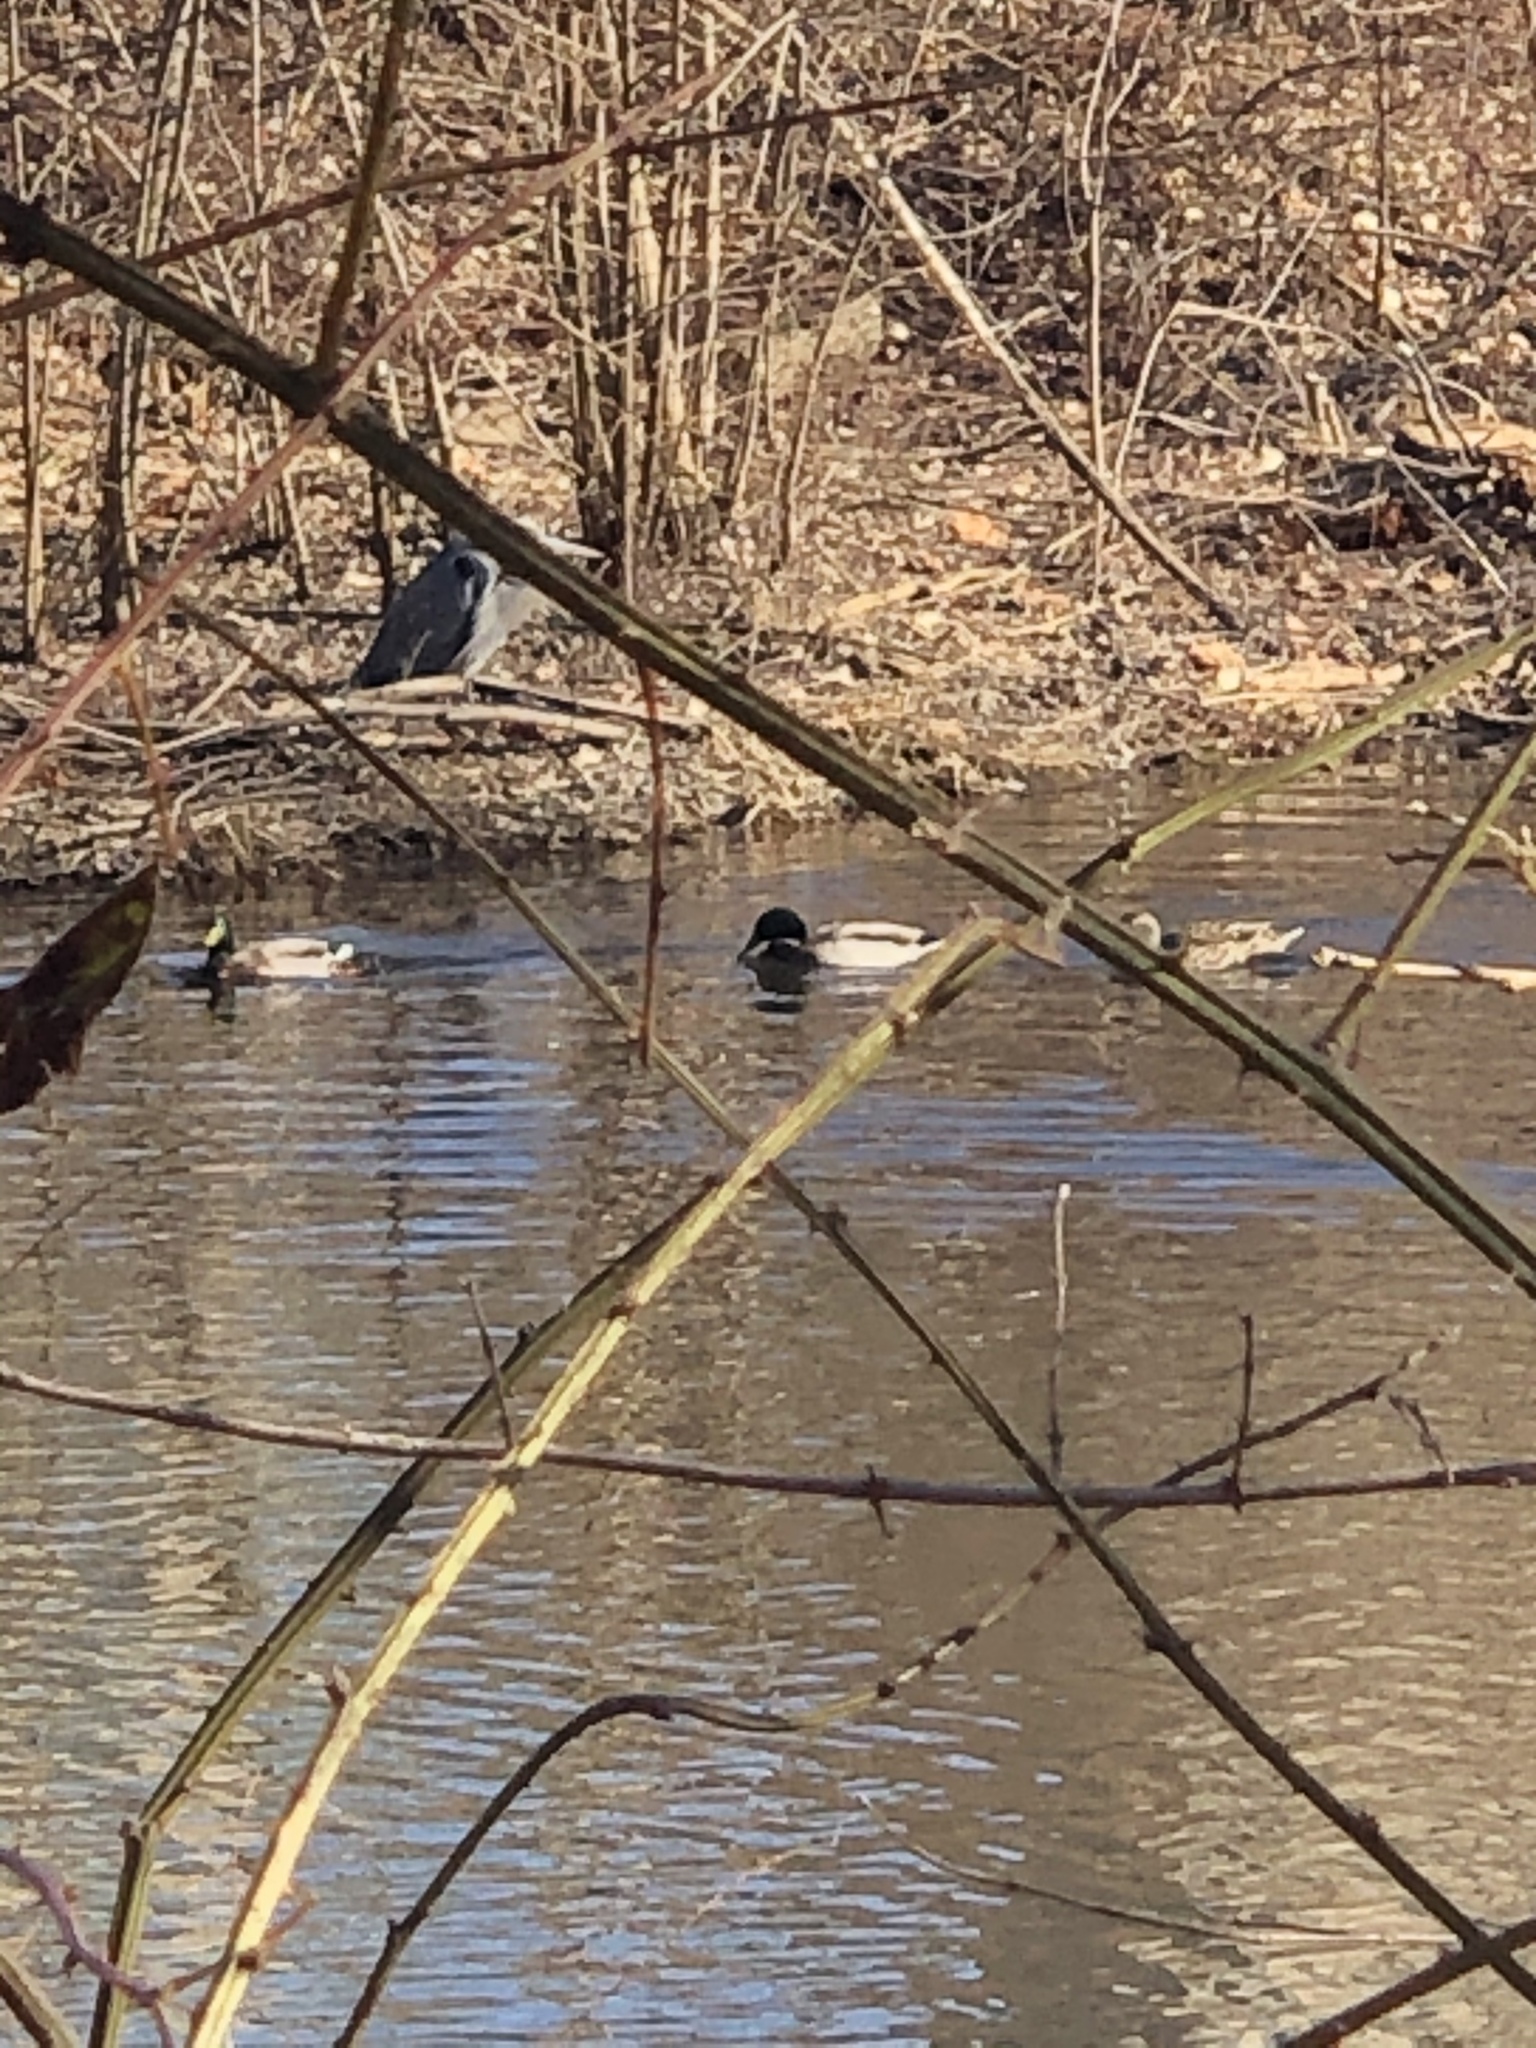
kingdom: Animalia
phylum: Chordata
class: Aves
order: Anseriformes
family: Anatidae
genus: Anas
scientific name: Anas platyrhynchos
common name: Mallard
